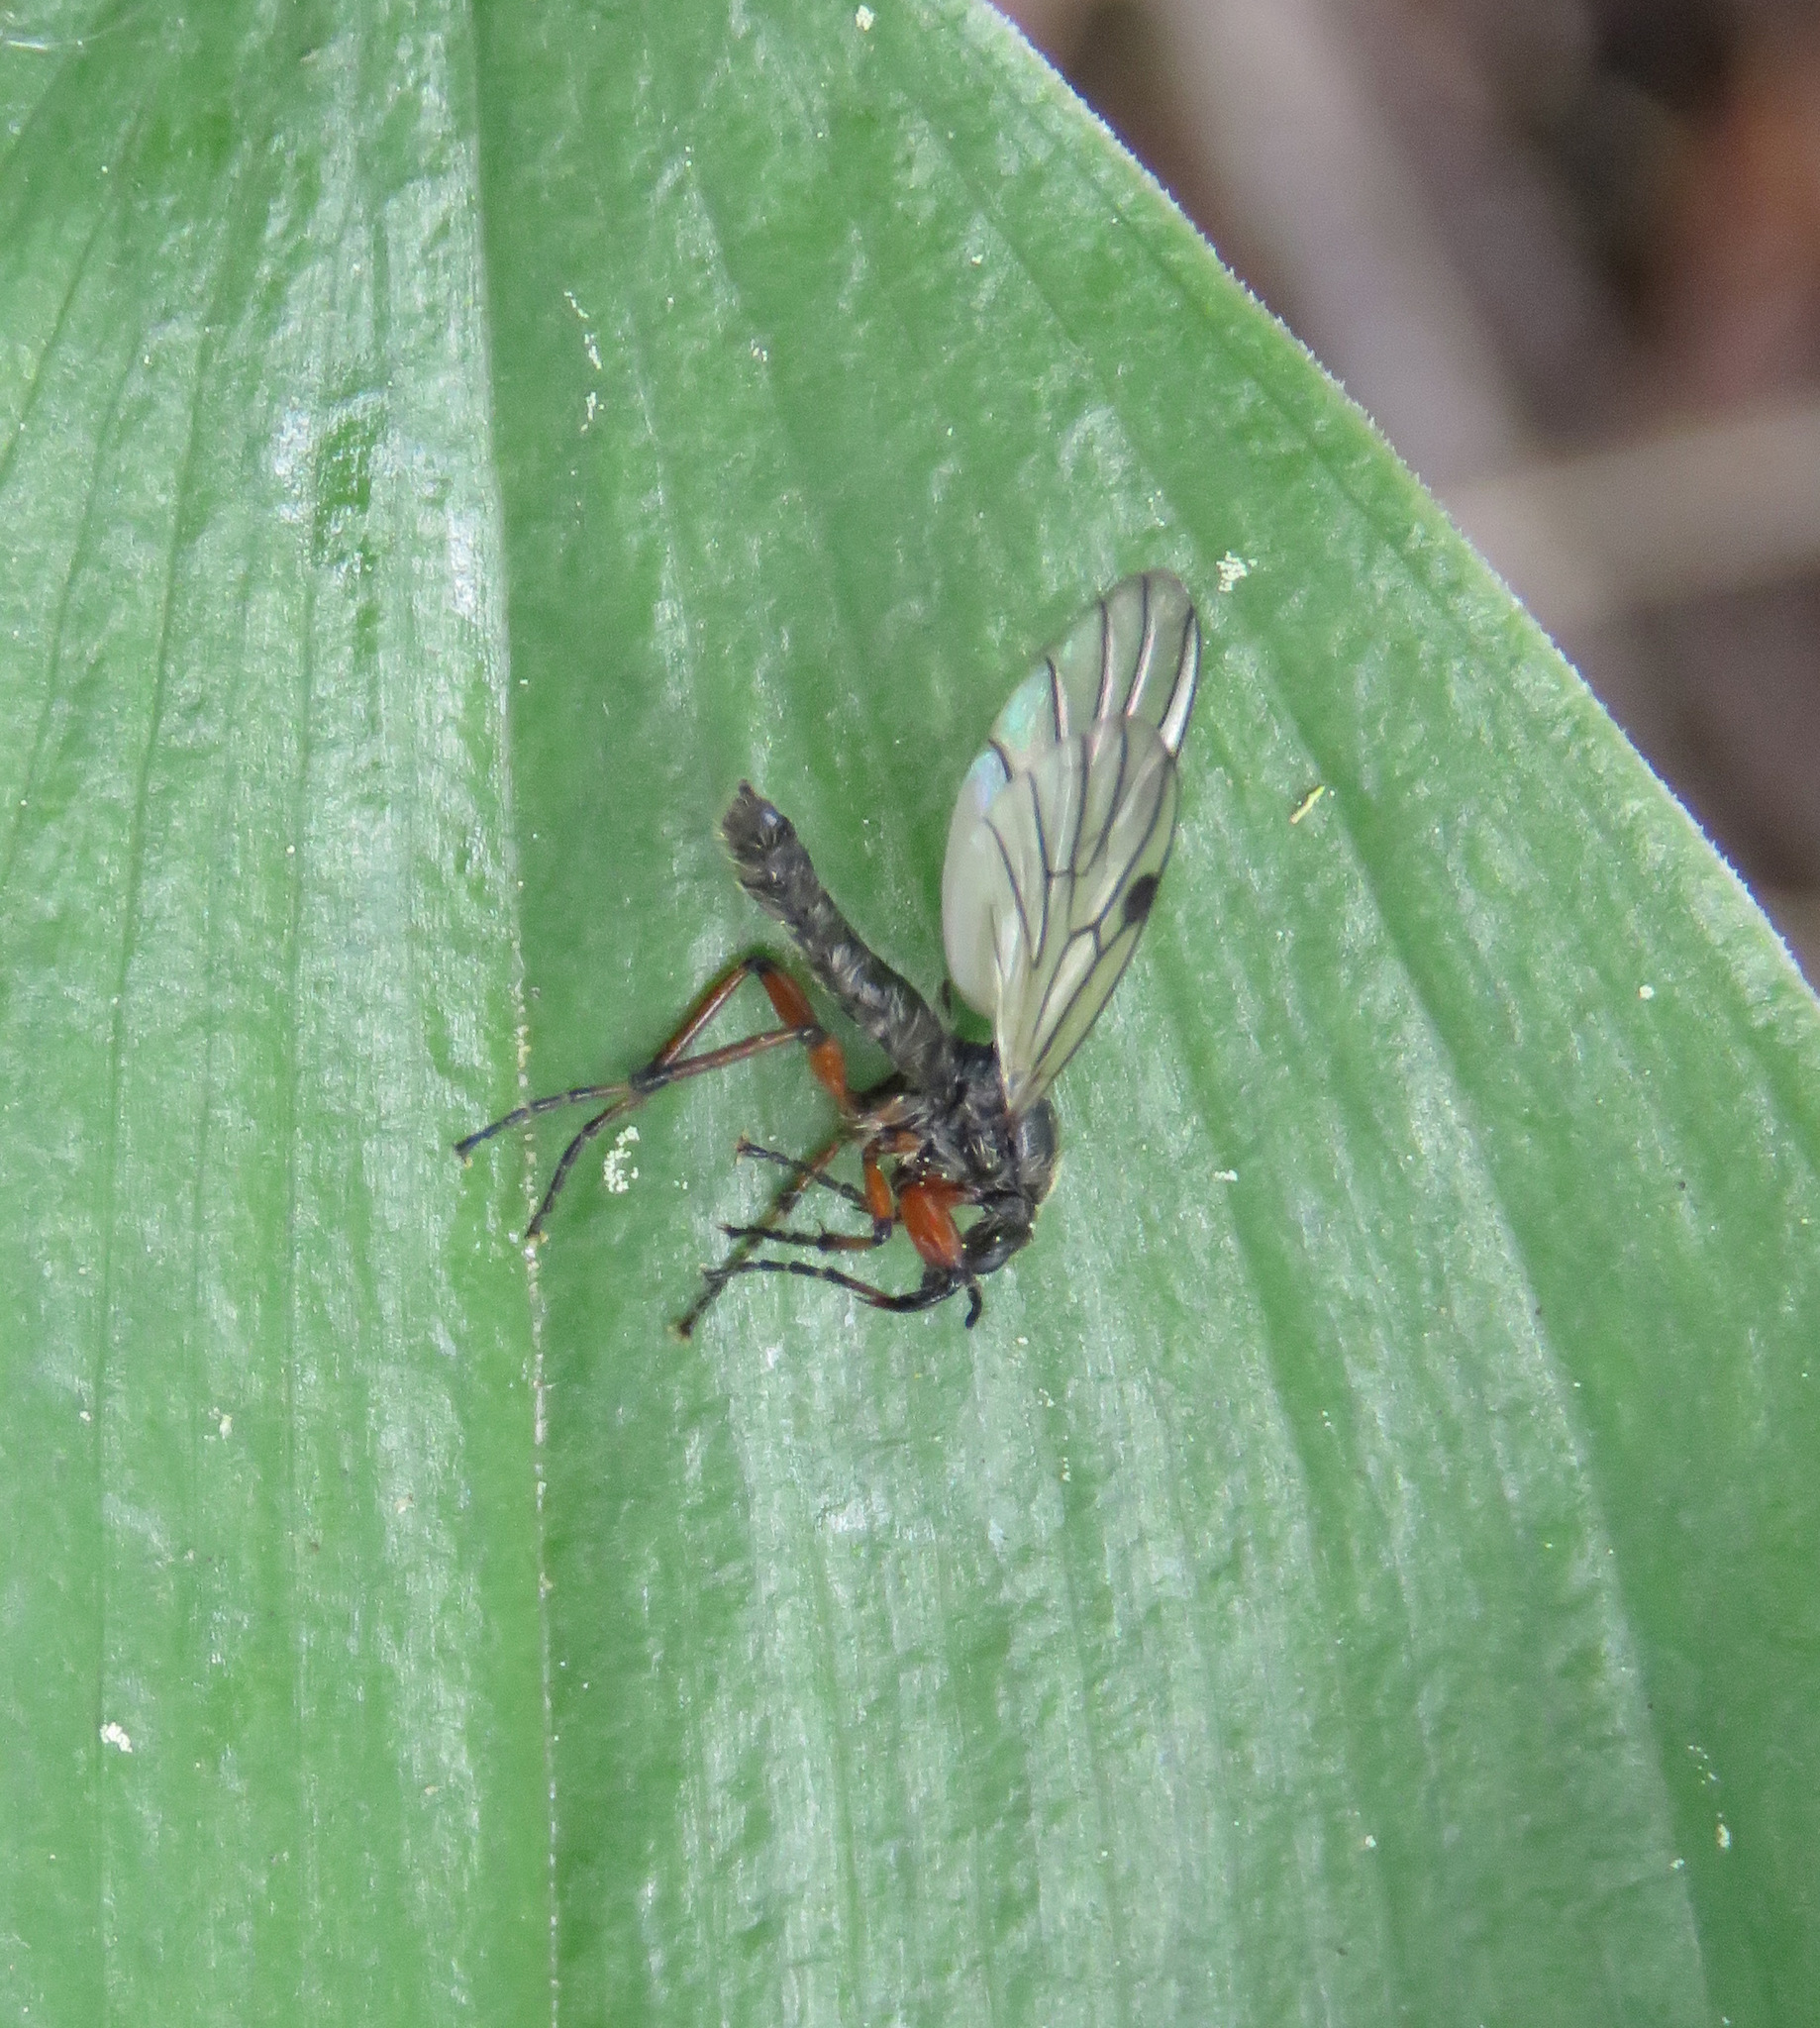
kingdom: Animalia
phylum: Arthropoda
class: Insecta
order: Diptera
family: Bibionidae
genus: Bibio
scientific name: Bibio
